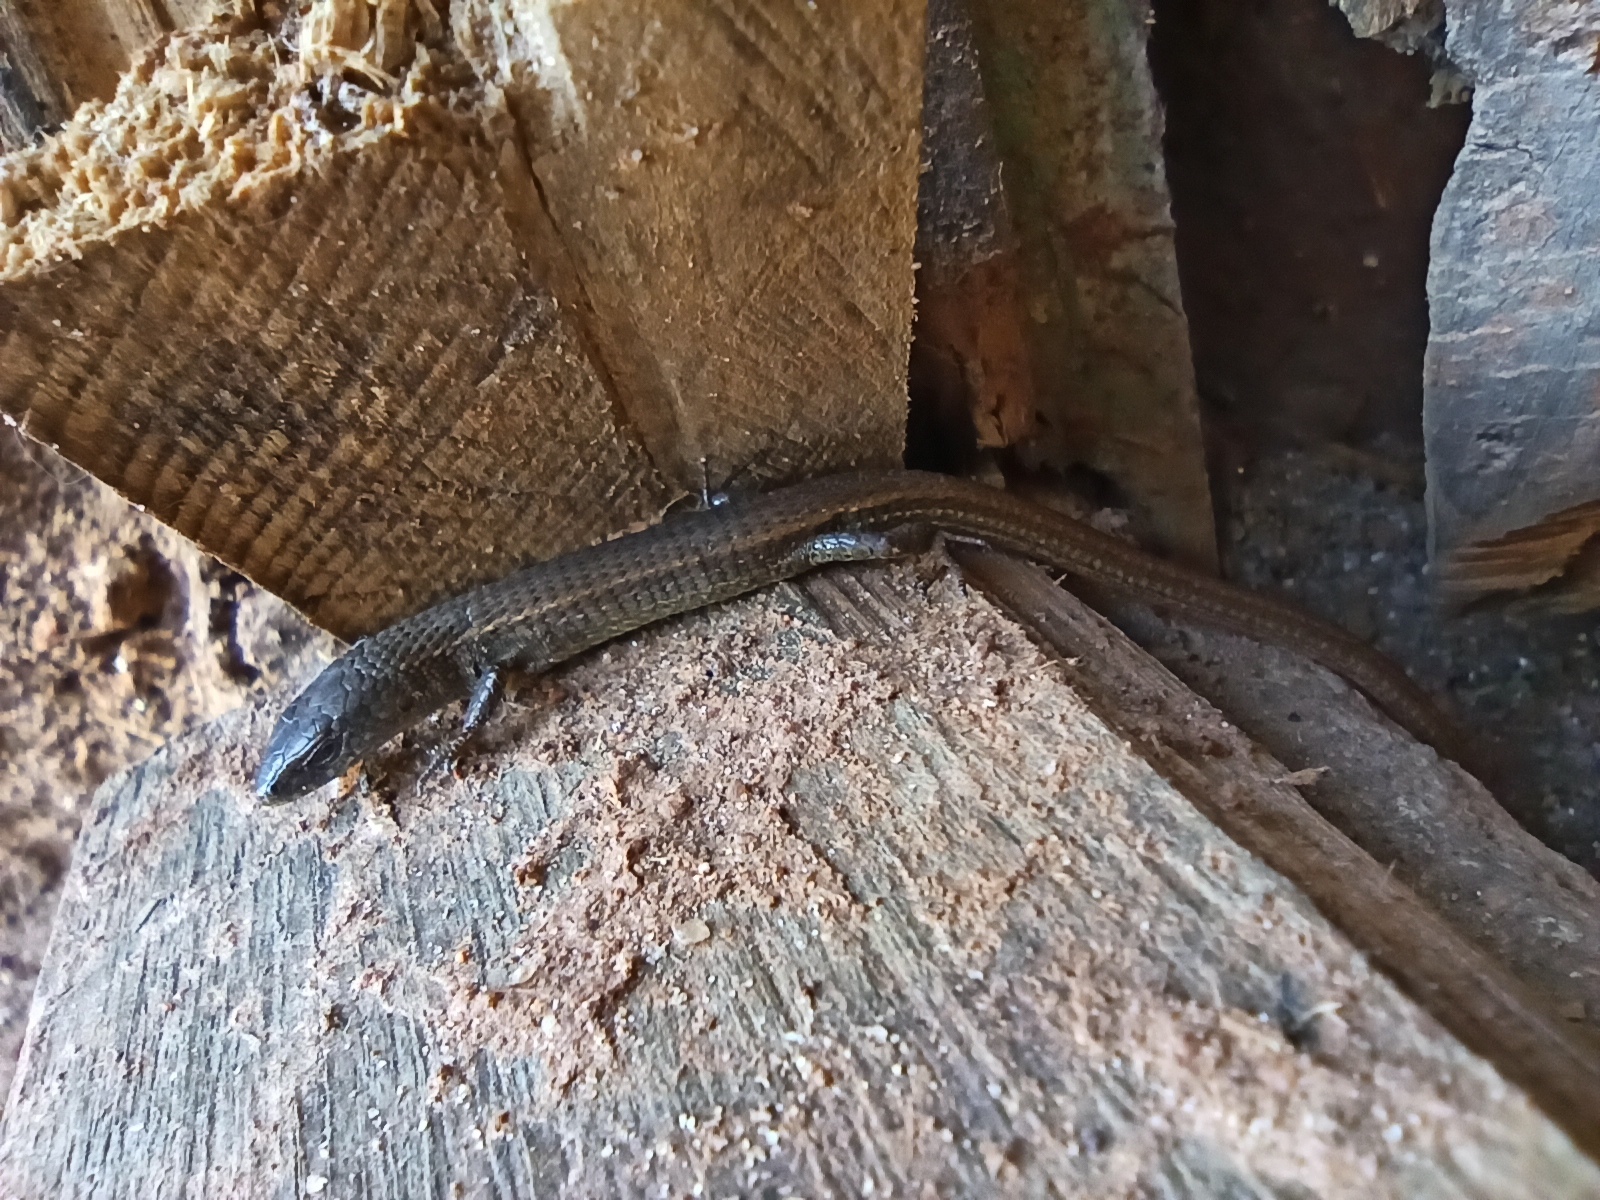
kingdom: Animalia
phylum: Chordata
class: Squamata
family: Gymnophthalmidae
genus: Cercosaura
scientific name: Cercosaura schreibersii
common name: Schreibers' many-fingered teiid
